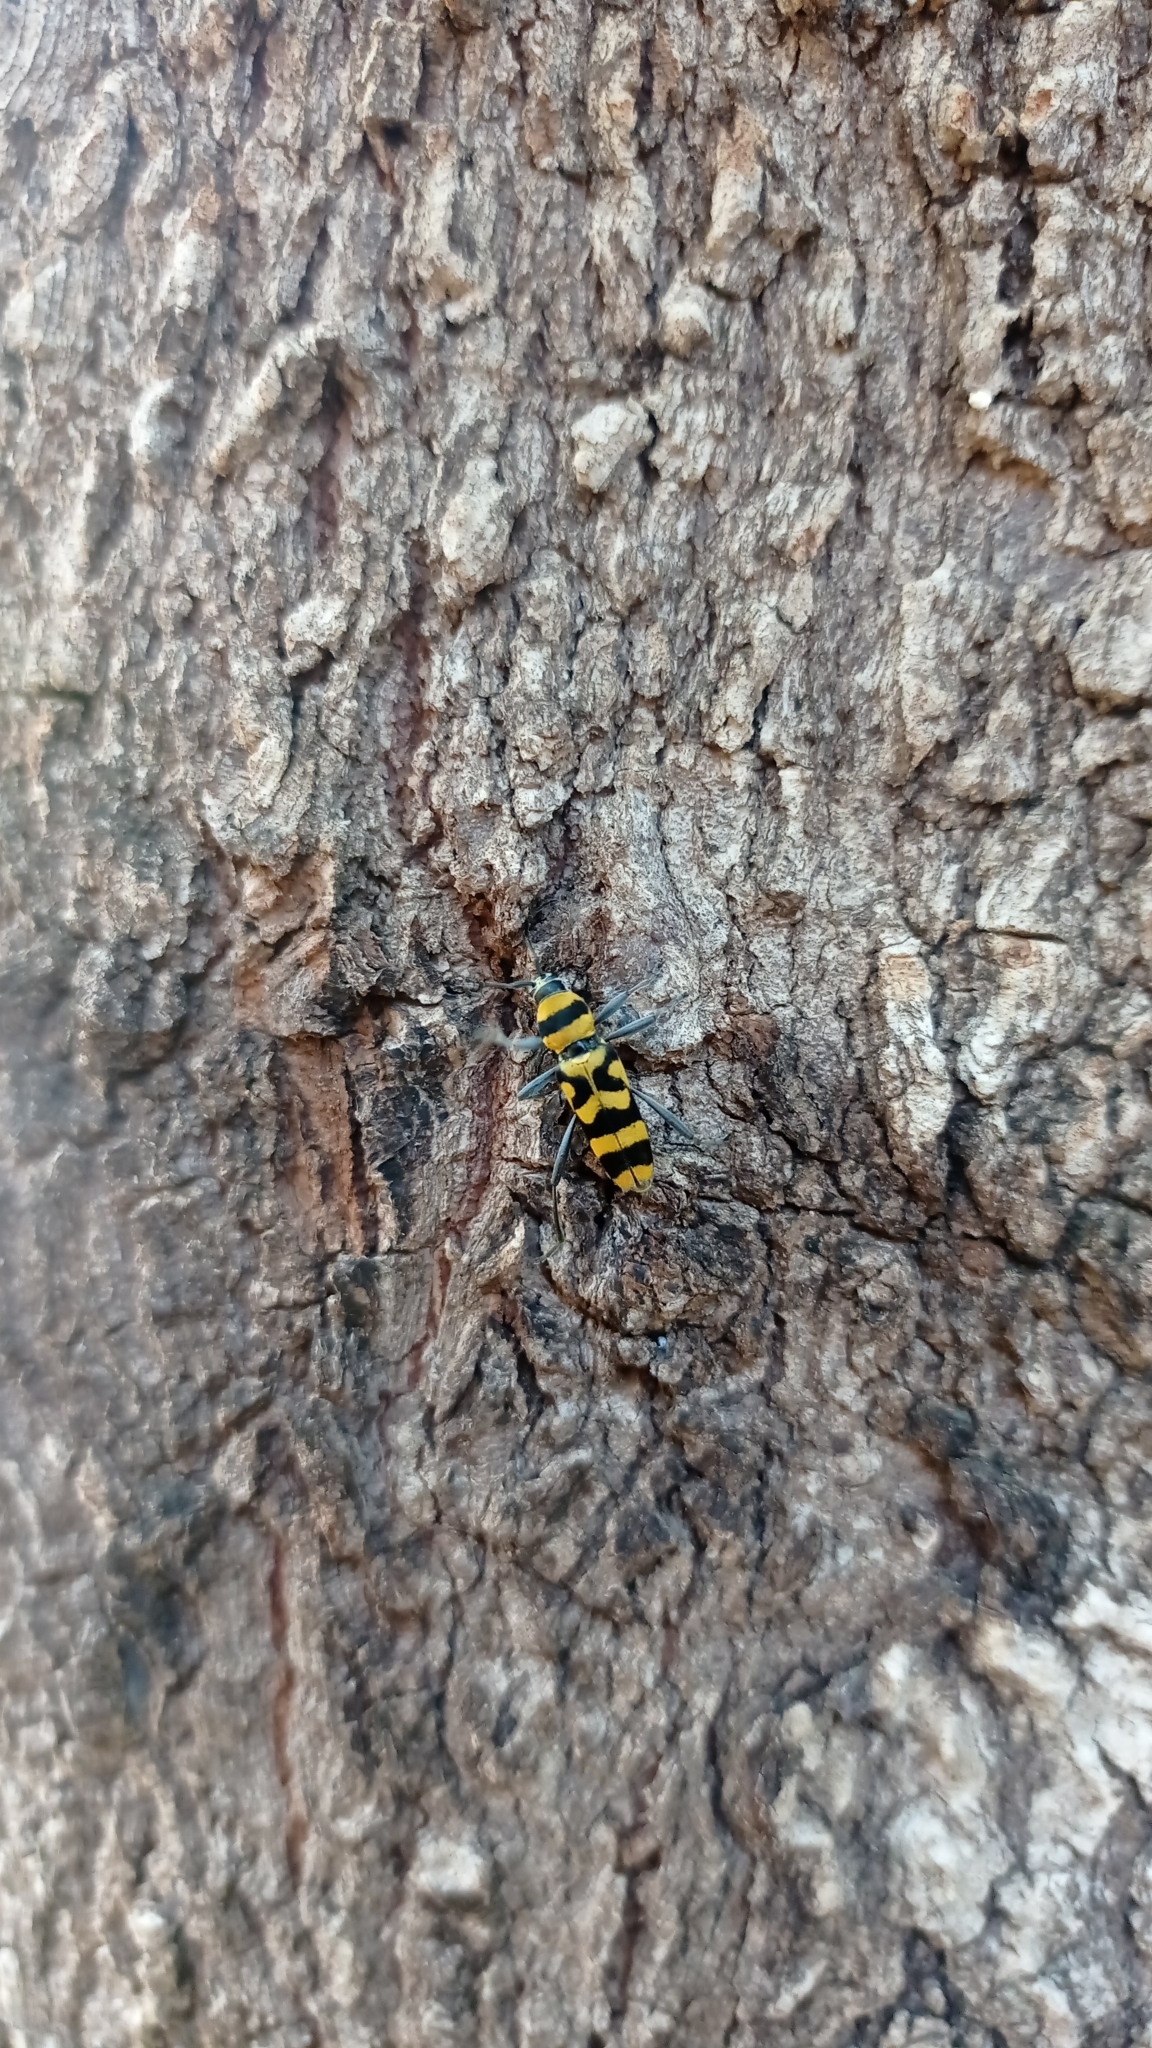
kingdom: Animalia
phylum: Arthropoda
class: Insecta
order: Coleoptera
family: Cerambycidae
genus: Chlorophorus
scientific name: Chlorophorus perornatus
